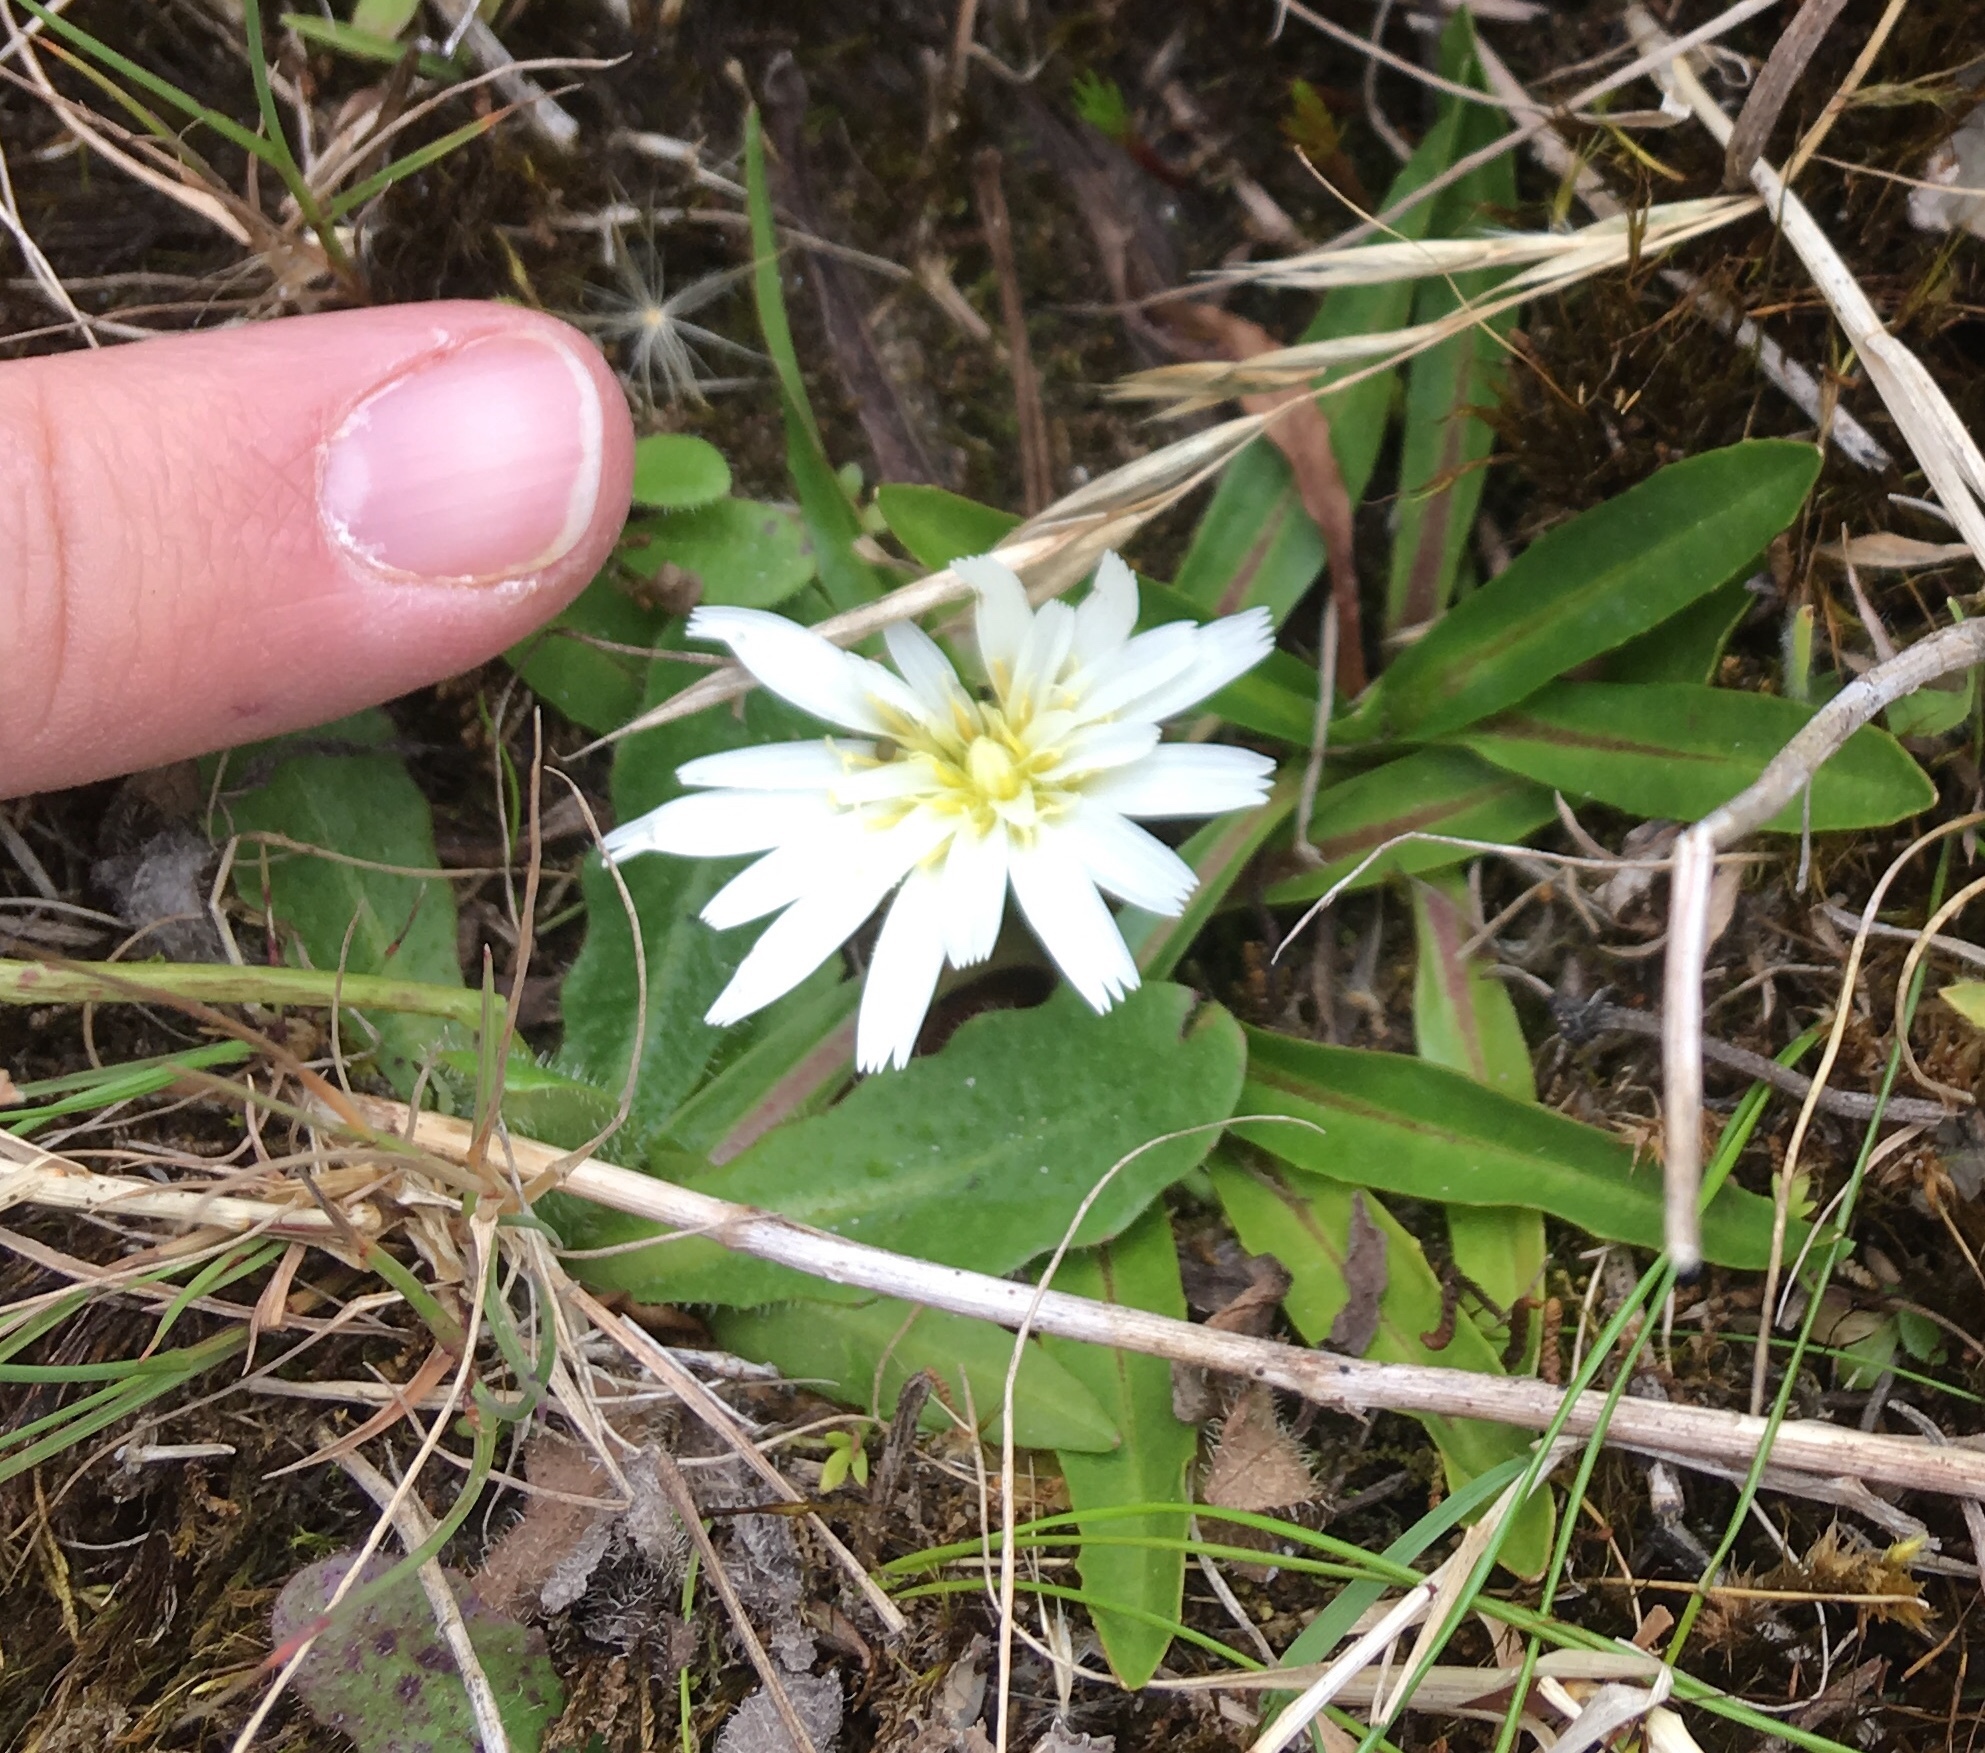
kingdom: Plantae
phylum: Tracheophyta
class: Magnoliopsida
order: Asterales
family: Asteraceae
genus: Hypochaeris
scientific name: Hypochaeris sessiliflora
